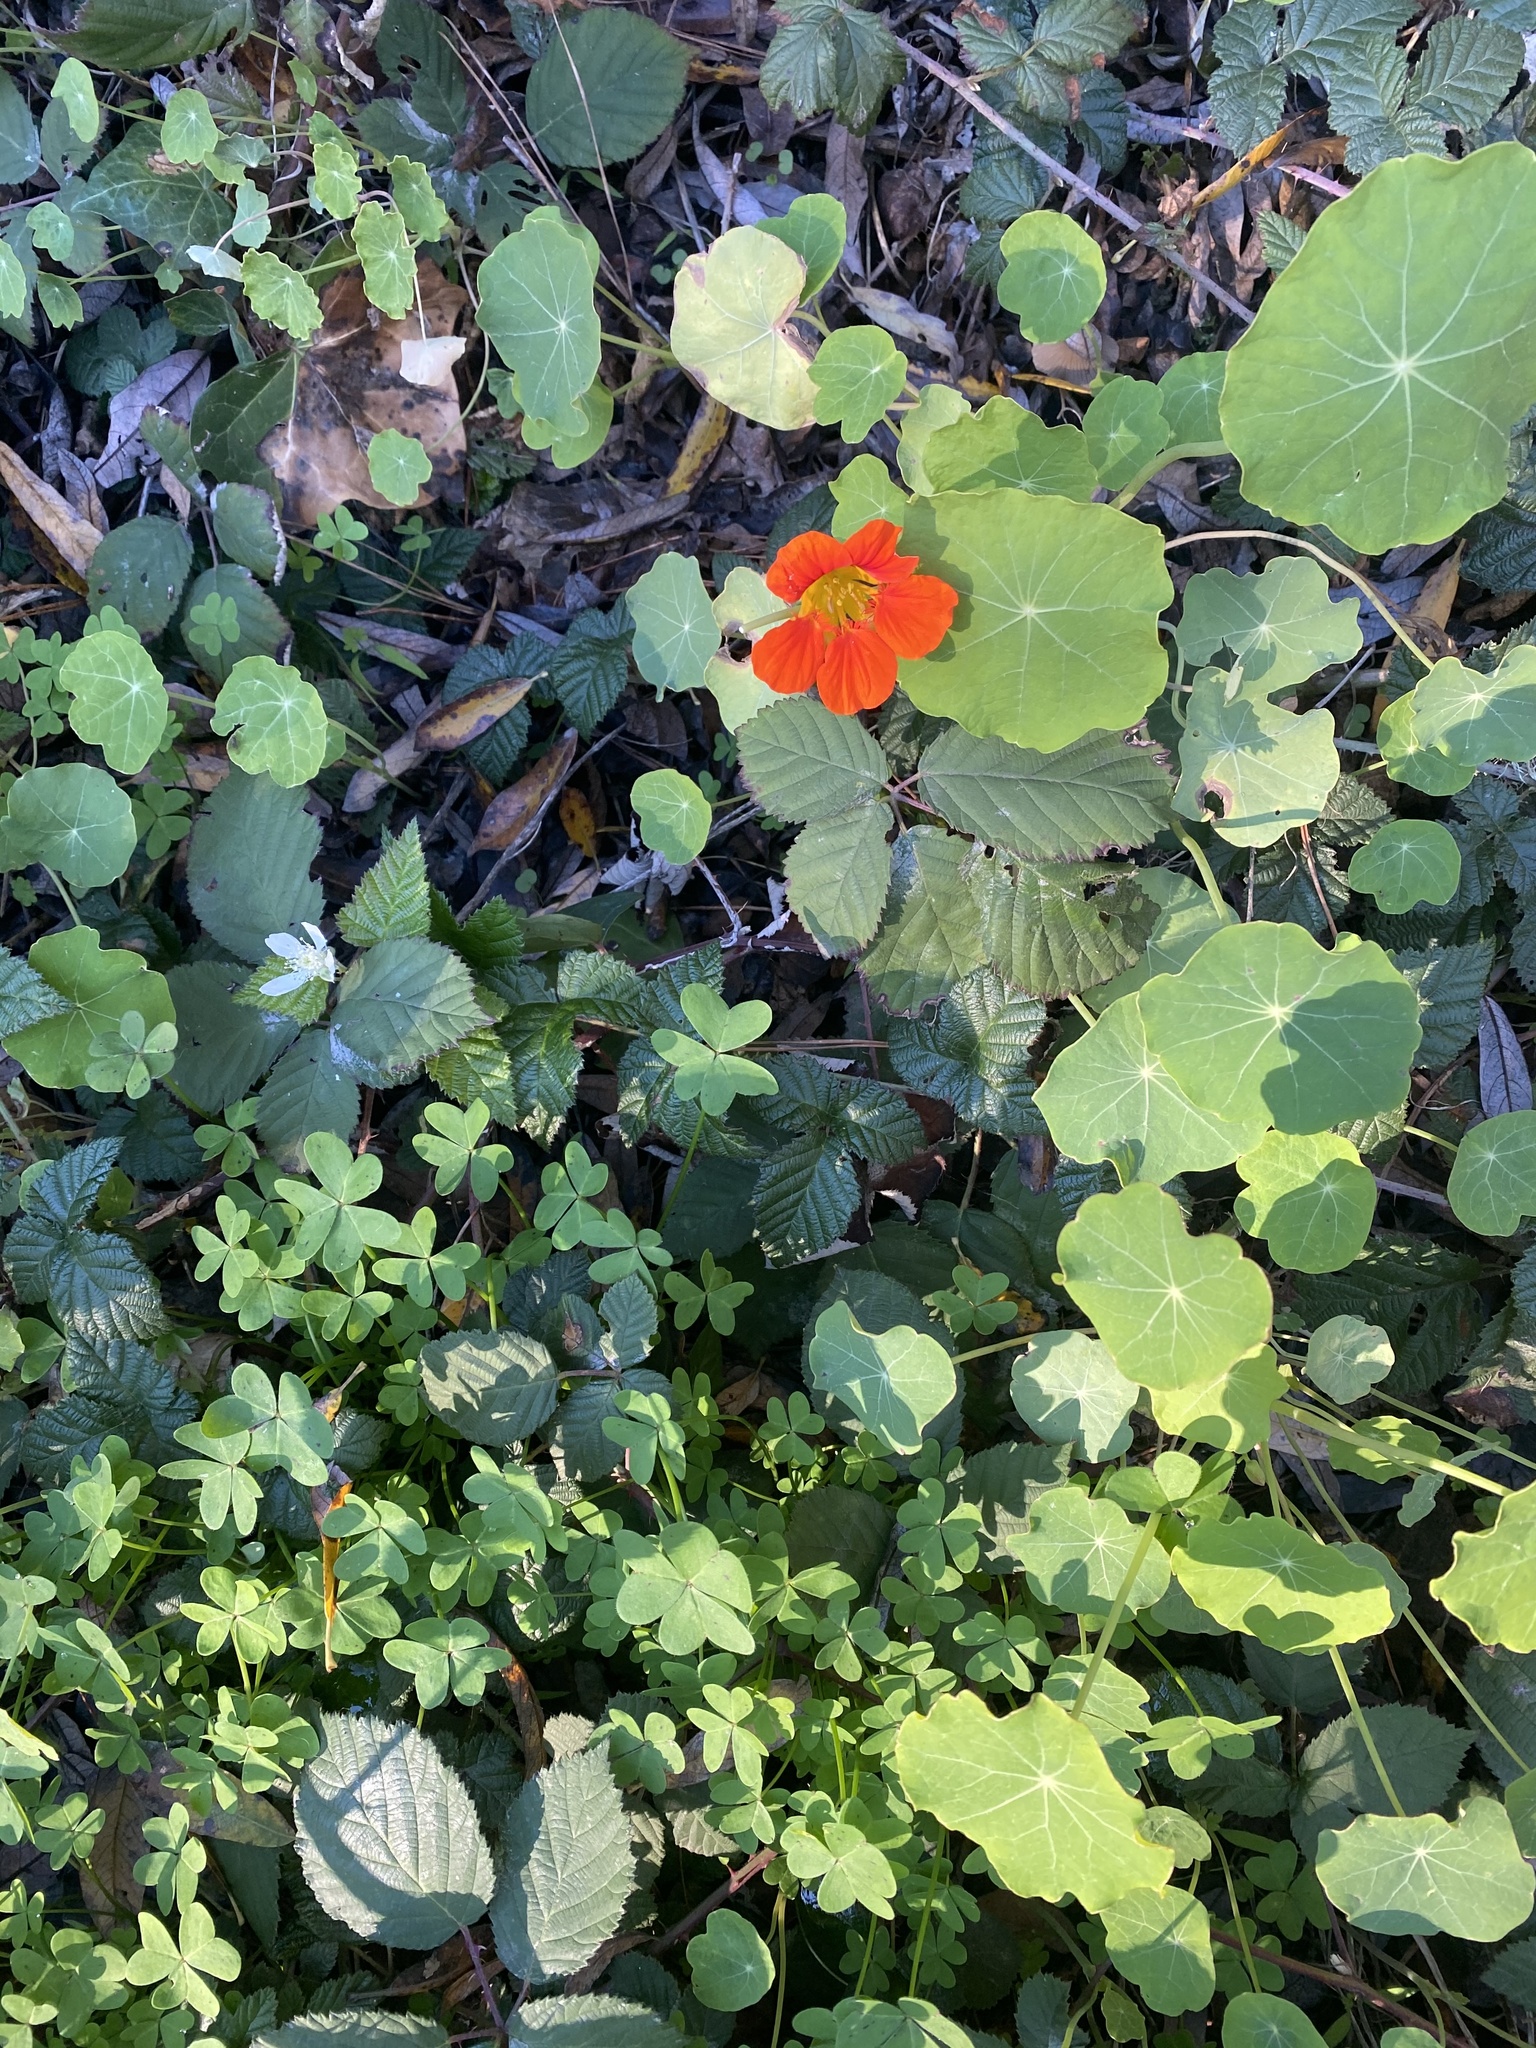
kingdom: Plantae
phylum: Tracheophyta
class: Magnoliopsida
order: Brassicales
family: Tropaeolaceae
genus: Tropaeolum
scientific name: Tropaeolum majus
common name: Nasturtium
